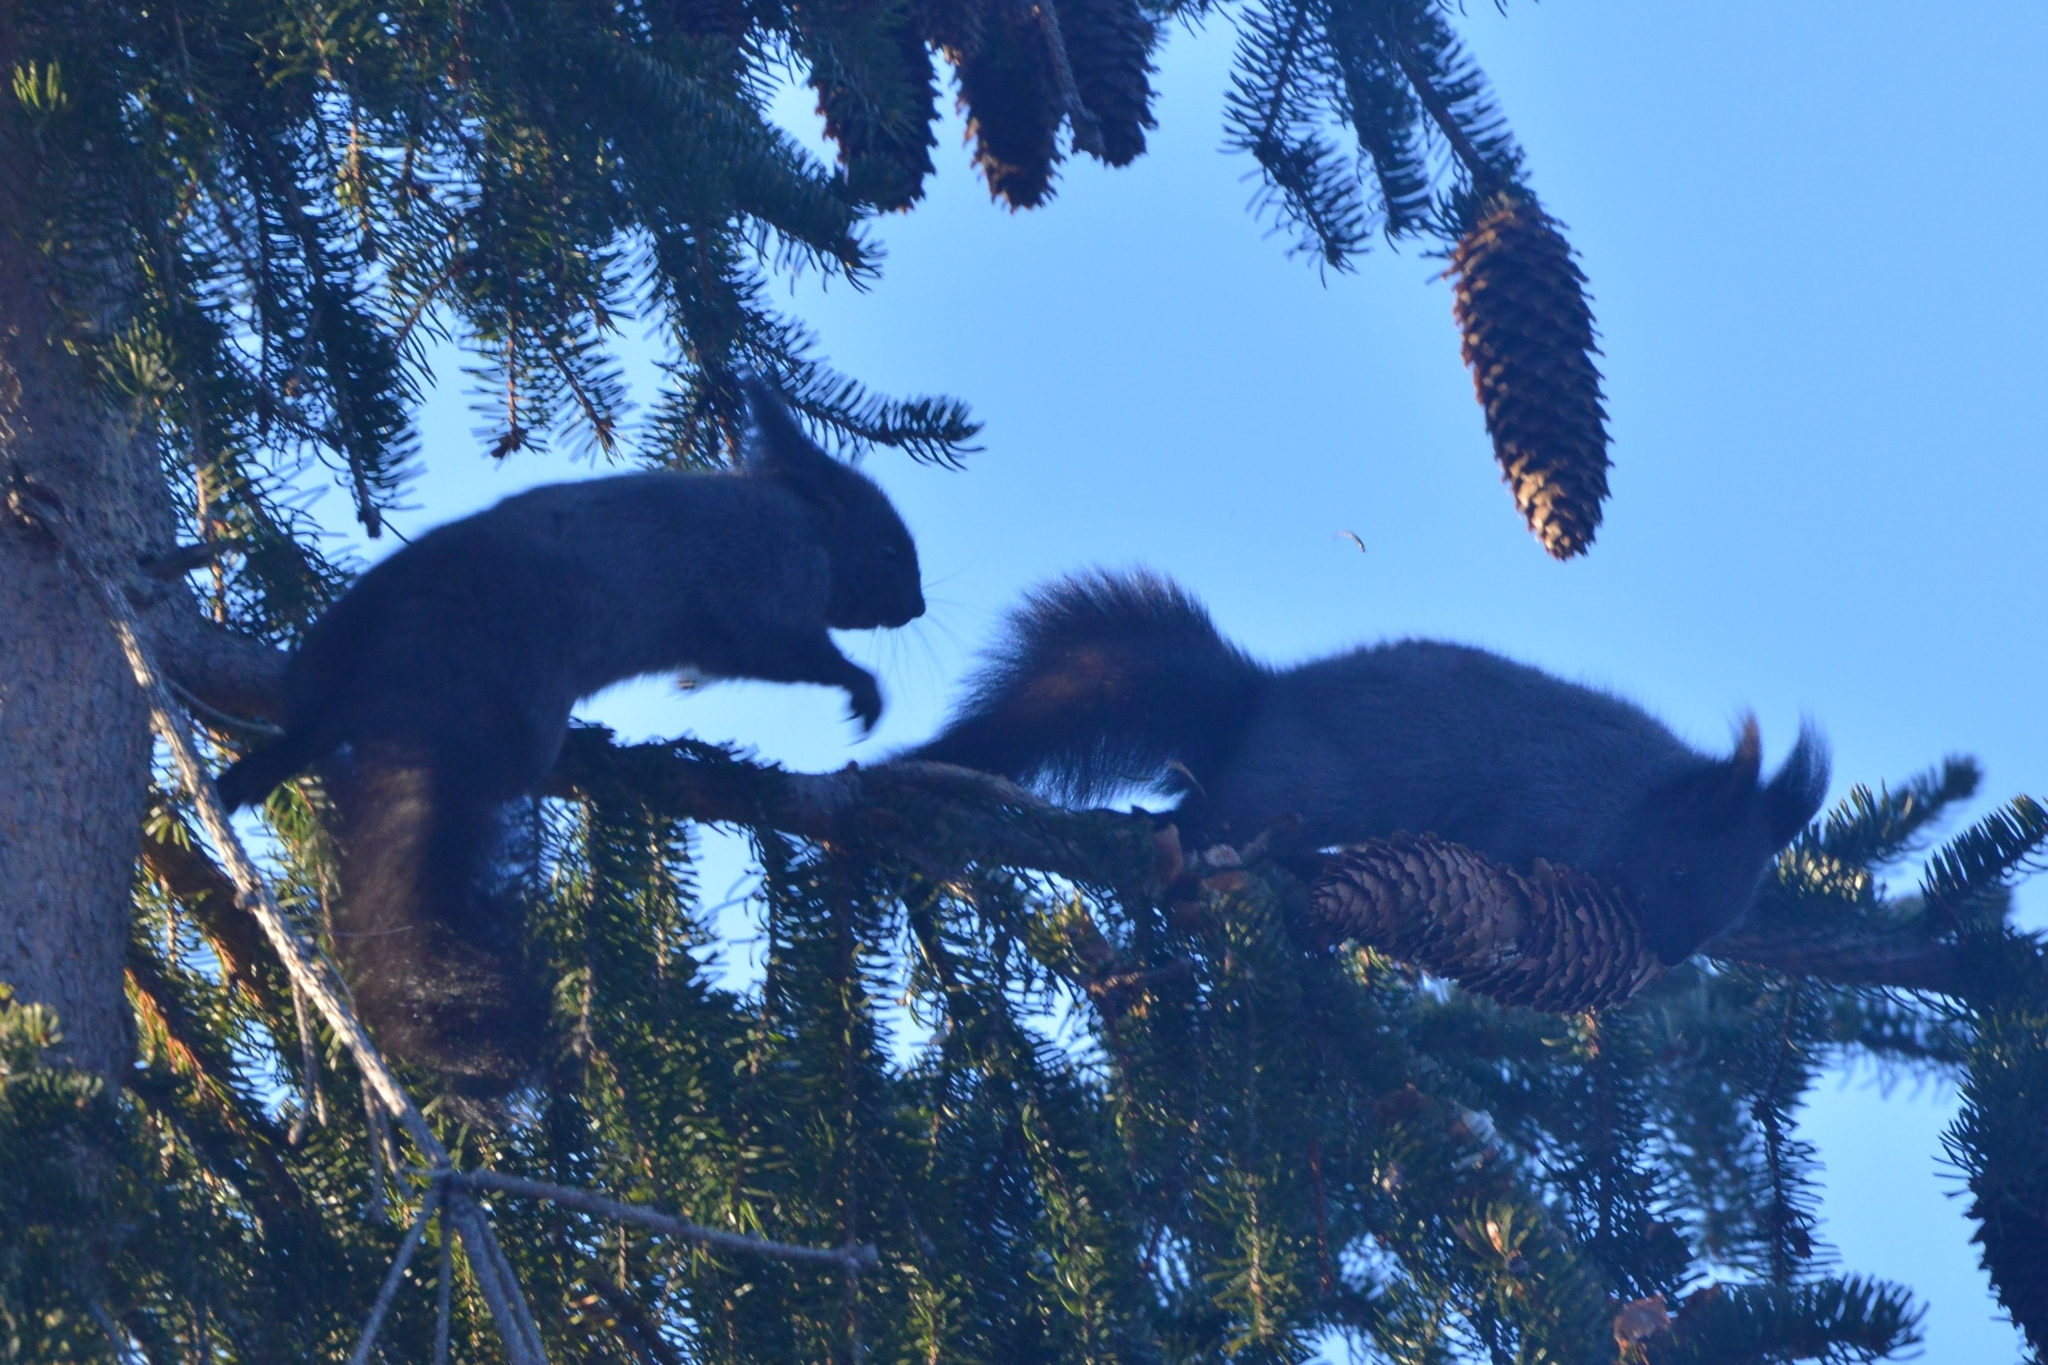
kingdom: Animalia
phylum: Chordata
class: Mammalia
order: Rodentia
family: Sciuridae
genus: Sciurus
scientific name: Sciurus vulgaris
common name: Eurasian red squirrel
